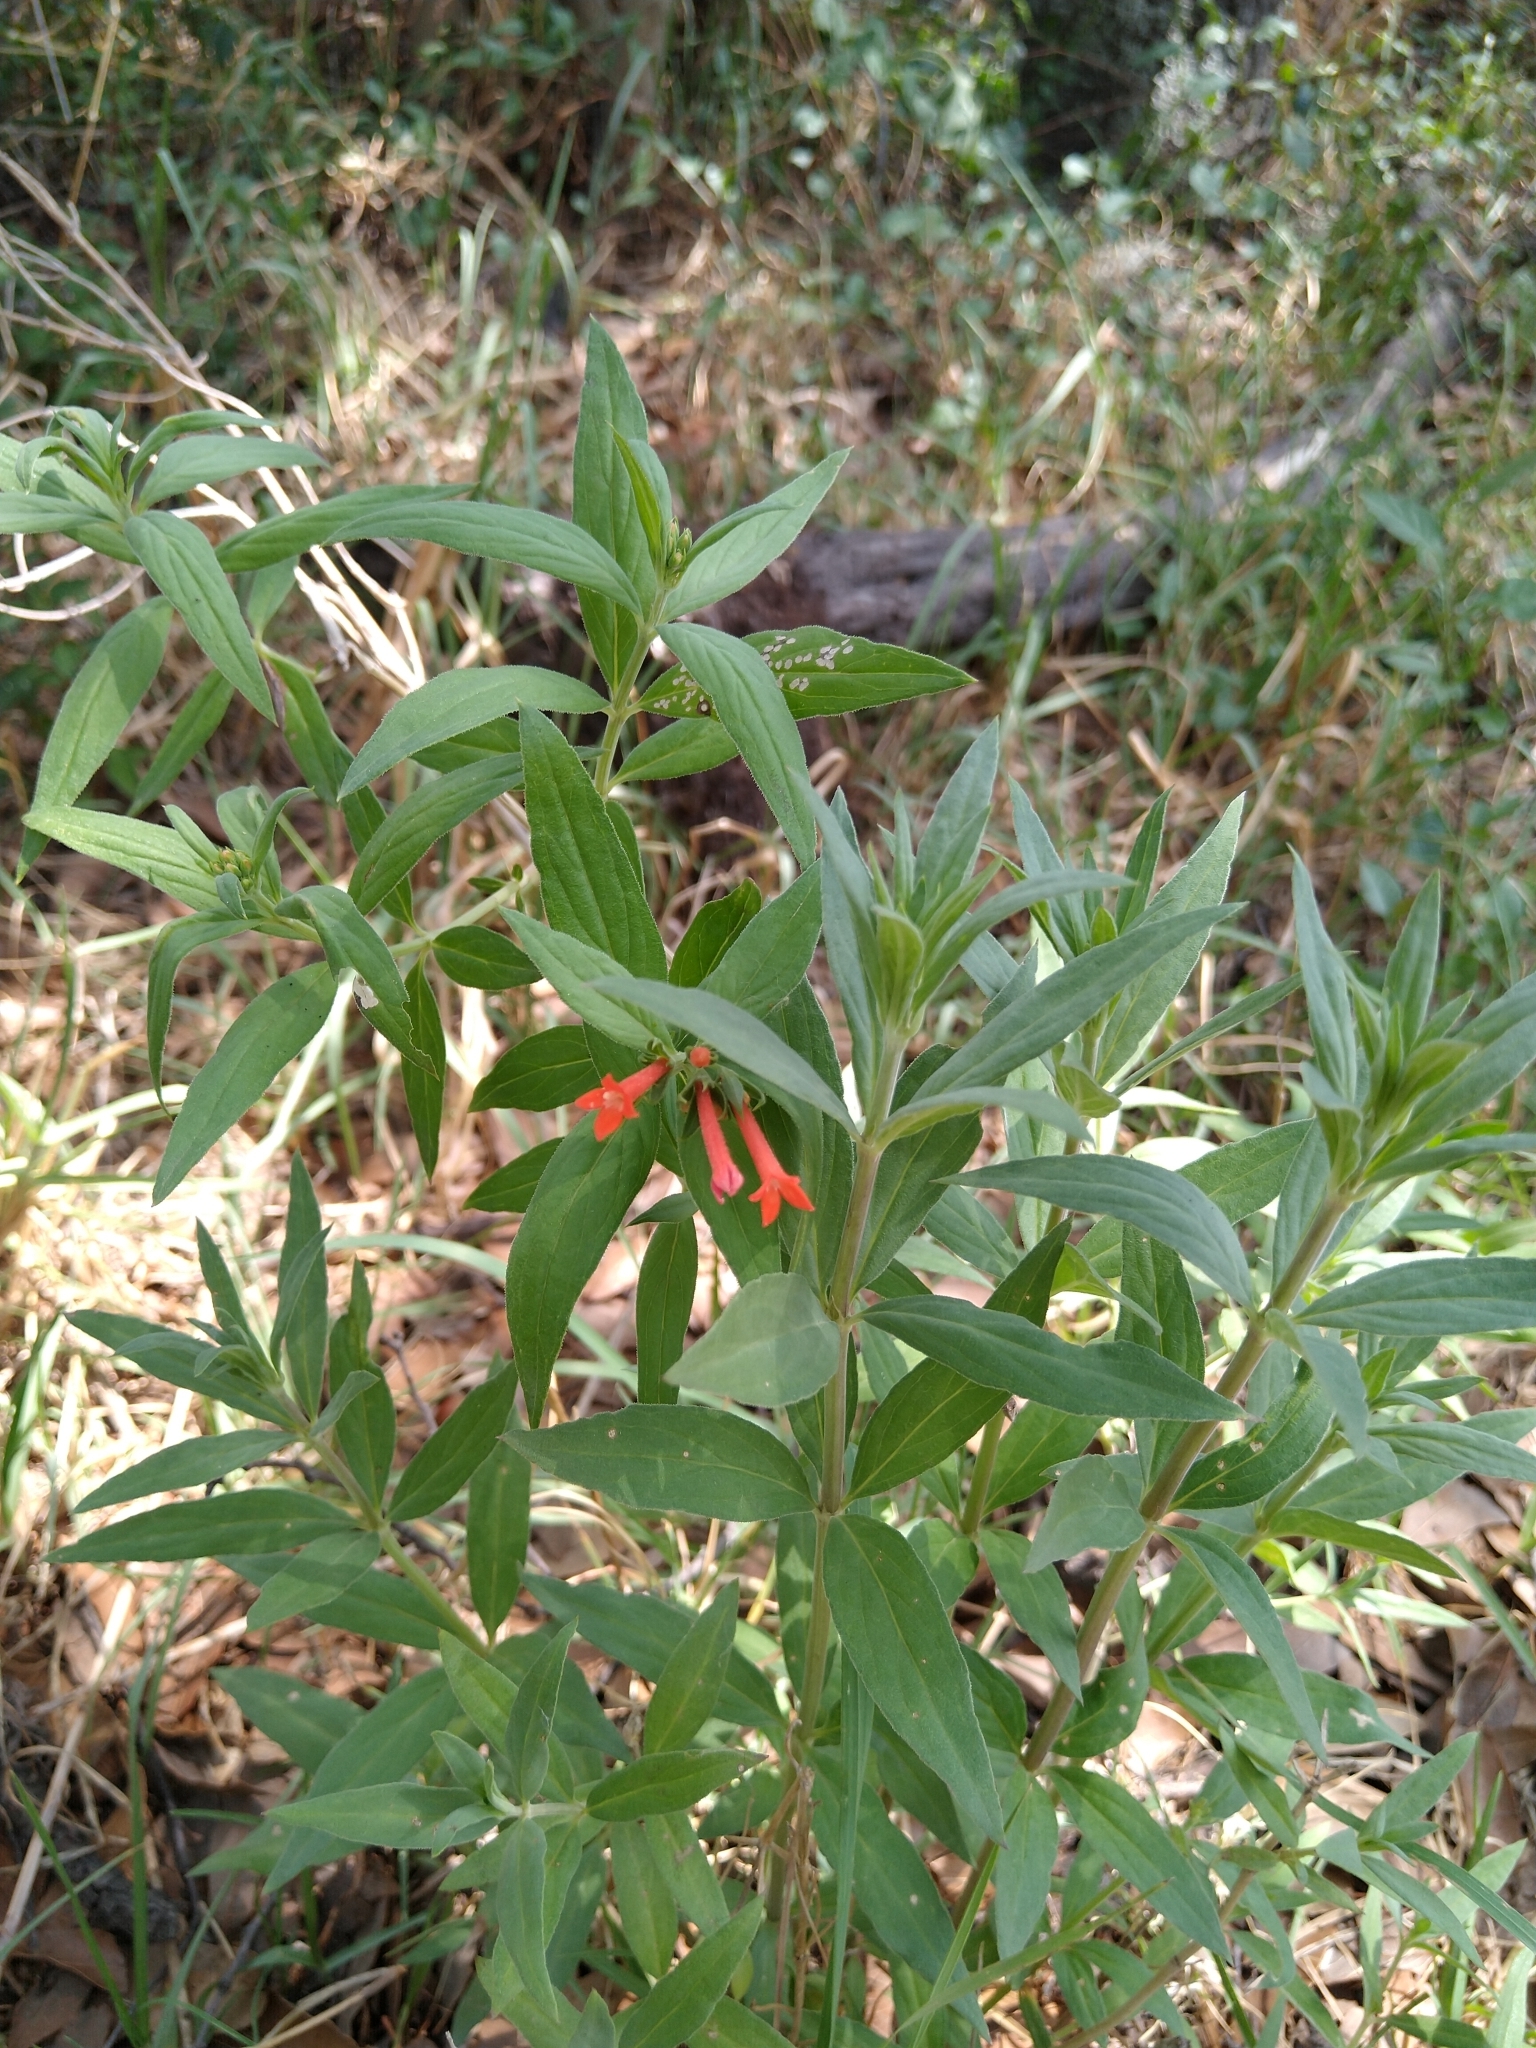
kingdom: Plantae
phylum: Tracheophyta
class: Magnoliopsida
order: Gentianales
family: Rubiaceae
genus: Bouvardia
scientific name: Bouvardia ternifolia
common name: Scarlet bouvardia
